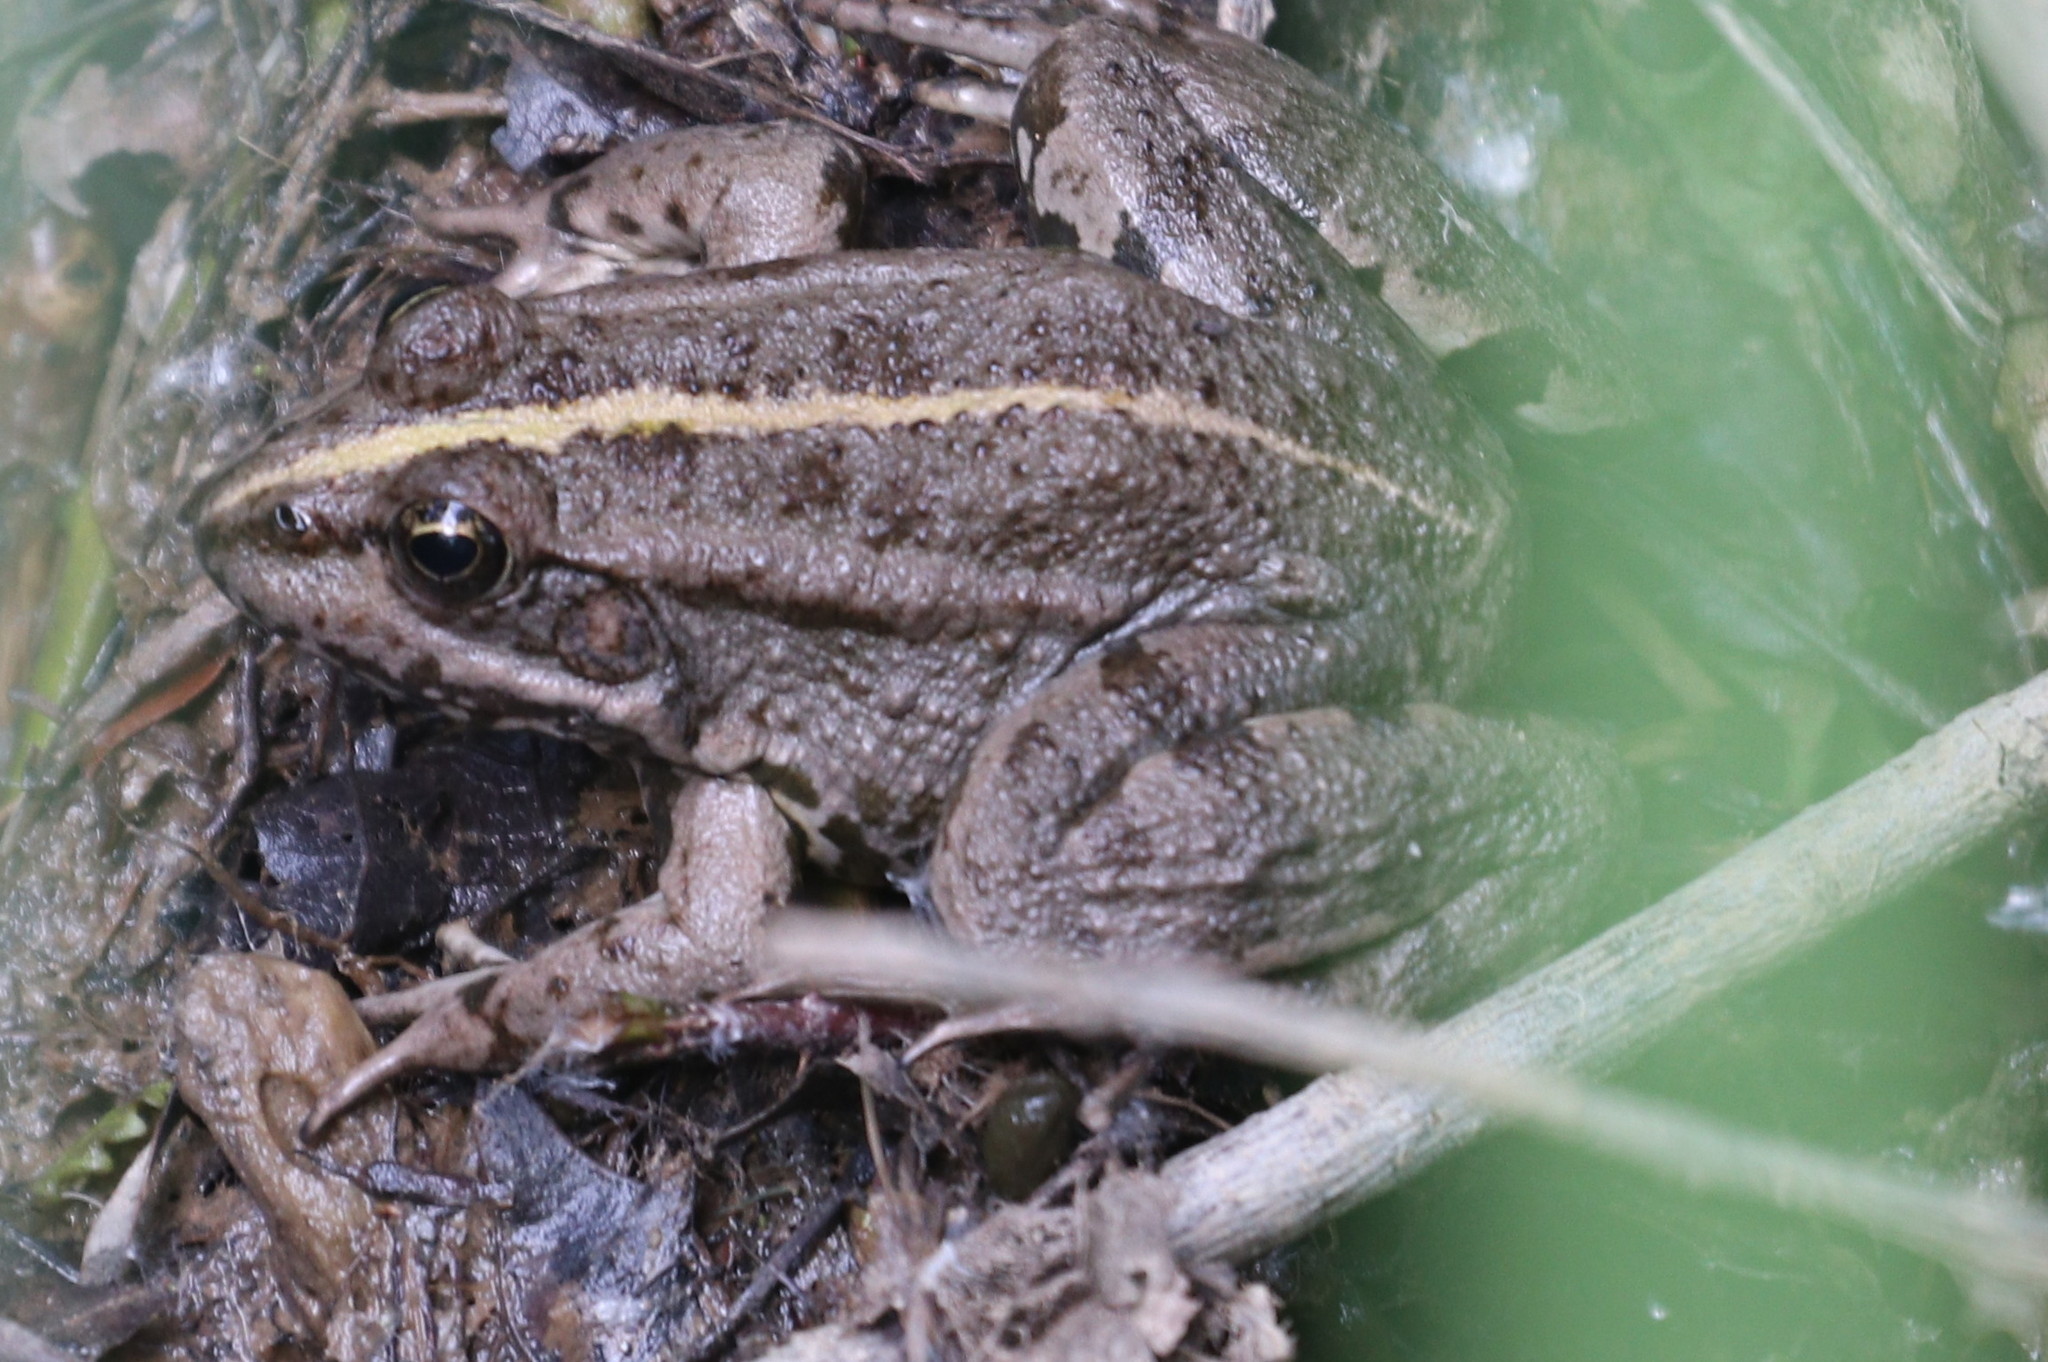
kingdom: Animalia
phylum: Chordata
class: Amphibia
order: Anura
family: Ranidae
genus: Pelophylax
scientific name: Pelophylax ridibundus
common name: Marsh frog
